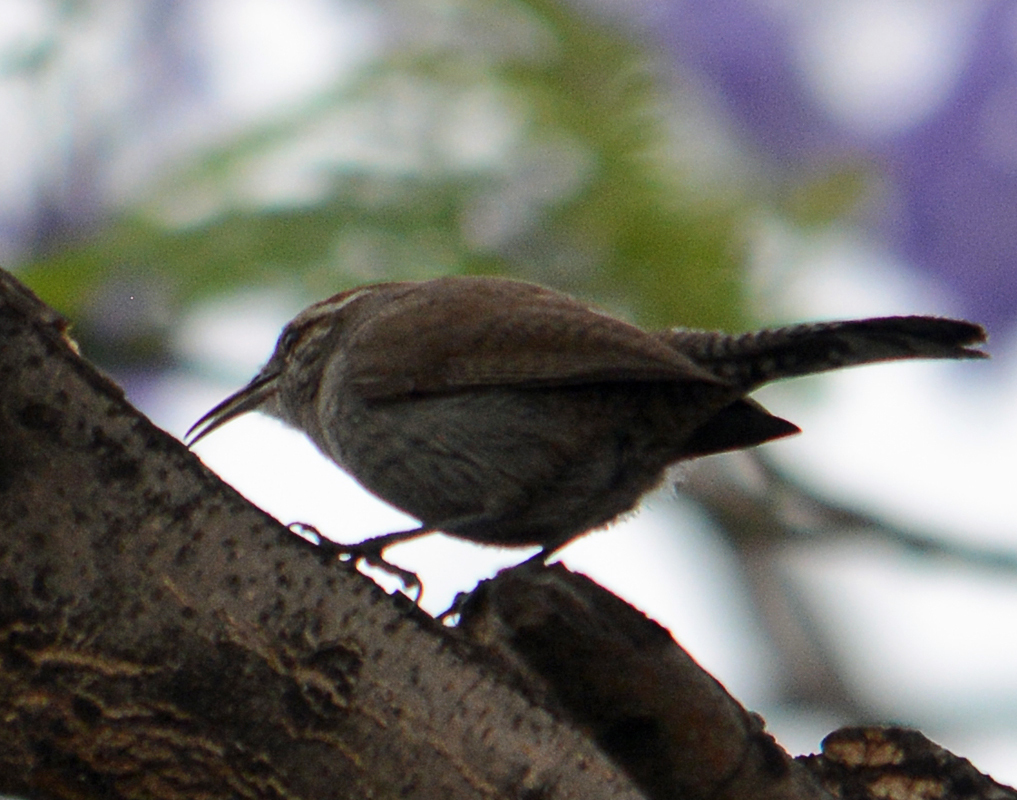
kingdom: Animalia
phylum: Chordata
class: Aves
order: Passeriformes
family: Troglodytidae
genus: Thryomanes
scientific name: Thryomanes bewickii
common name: Bewick's wren
